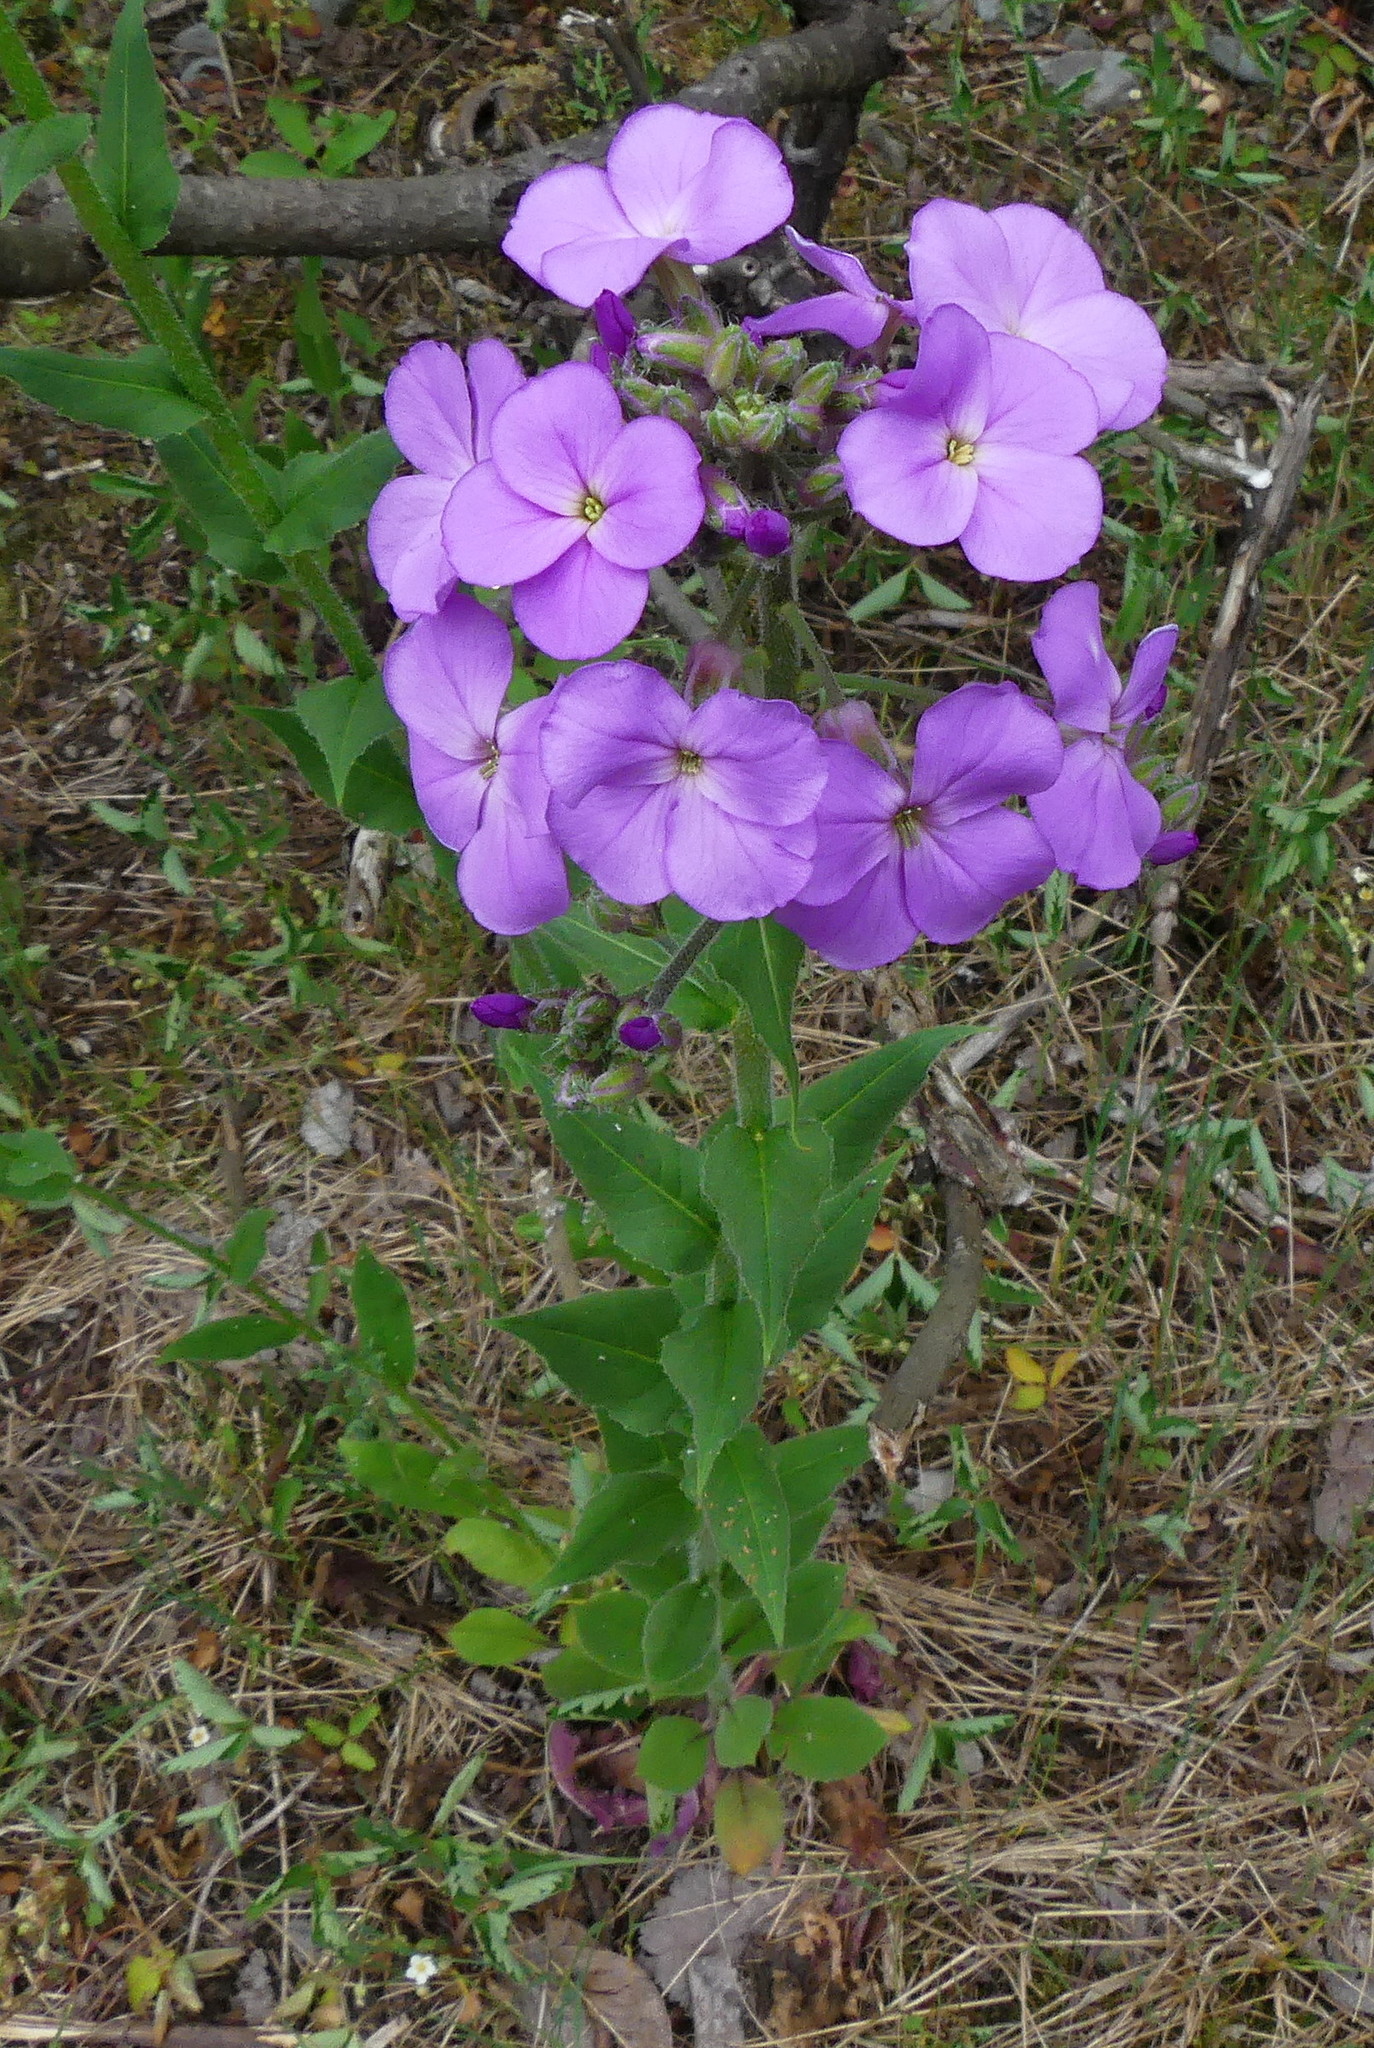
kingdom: Plantae
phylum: Tracheophyta
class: Magnoliopsida
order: Brassicales
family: Brassicaceae
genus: Hesperis
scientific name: Hesperis matronalis
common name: Dame's-violet
